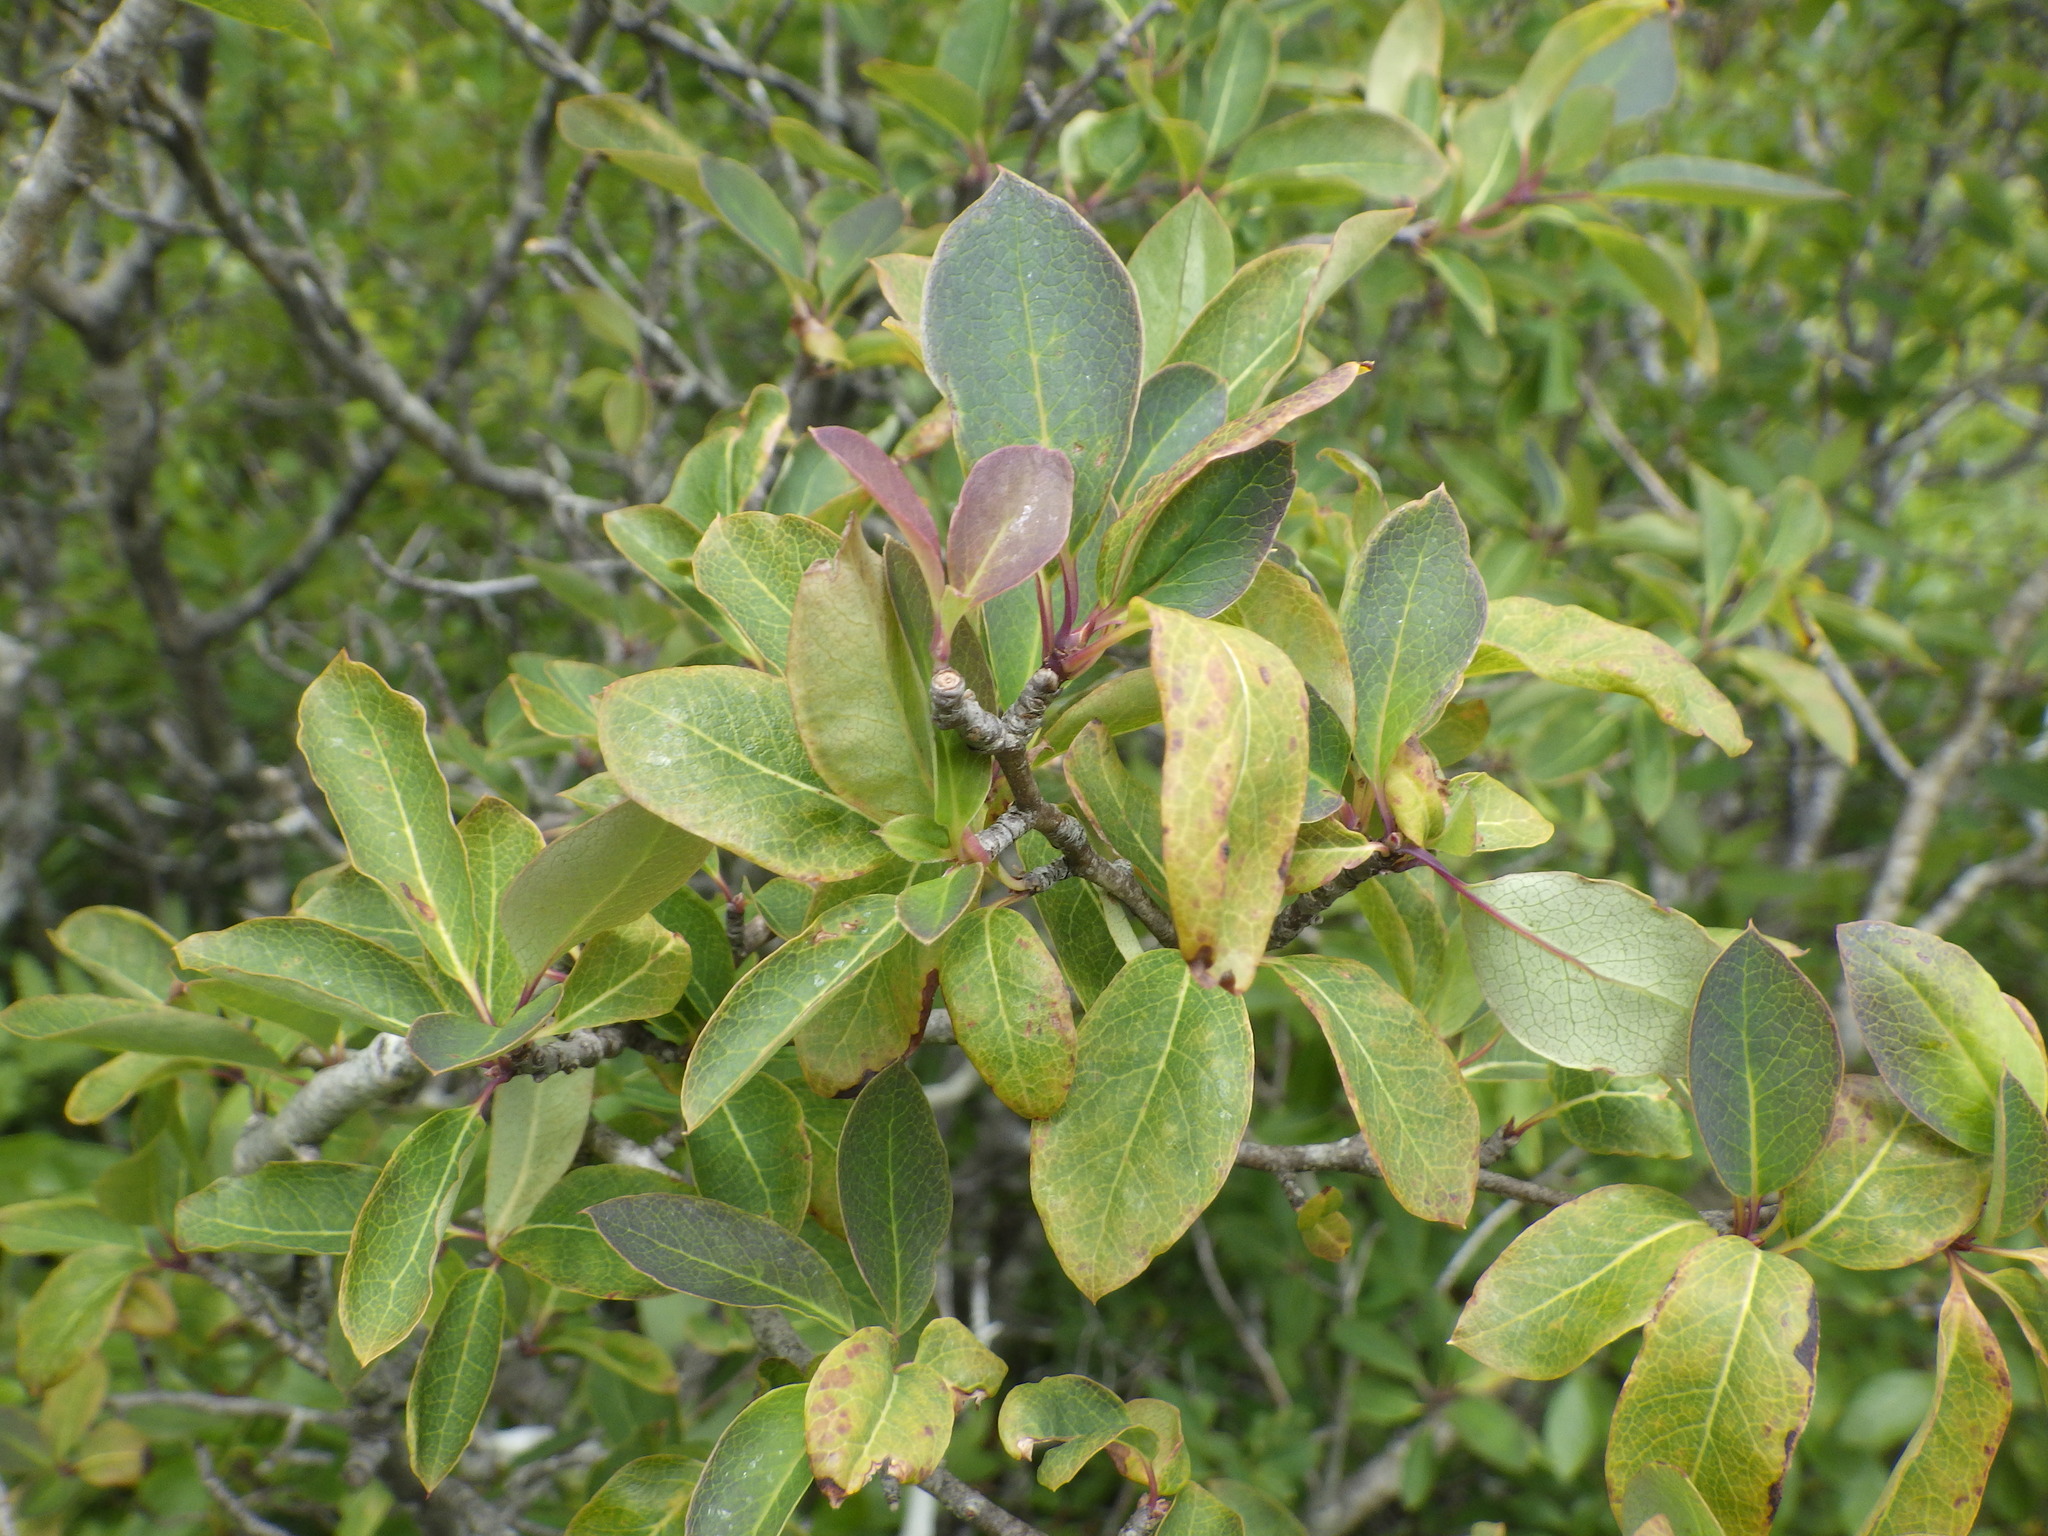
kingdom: Plantae
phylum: Tracheophyta
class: Magnoliopsida
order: Aquifoliales
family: Aquifoliaceae
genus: Ilex
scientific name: Ilex mucronata
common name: Catberry
